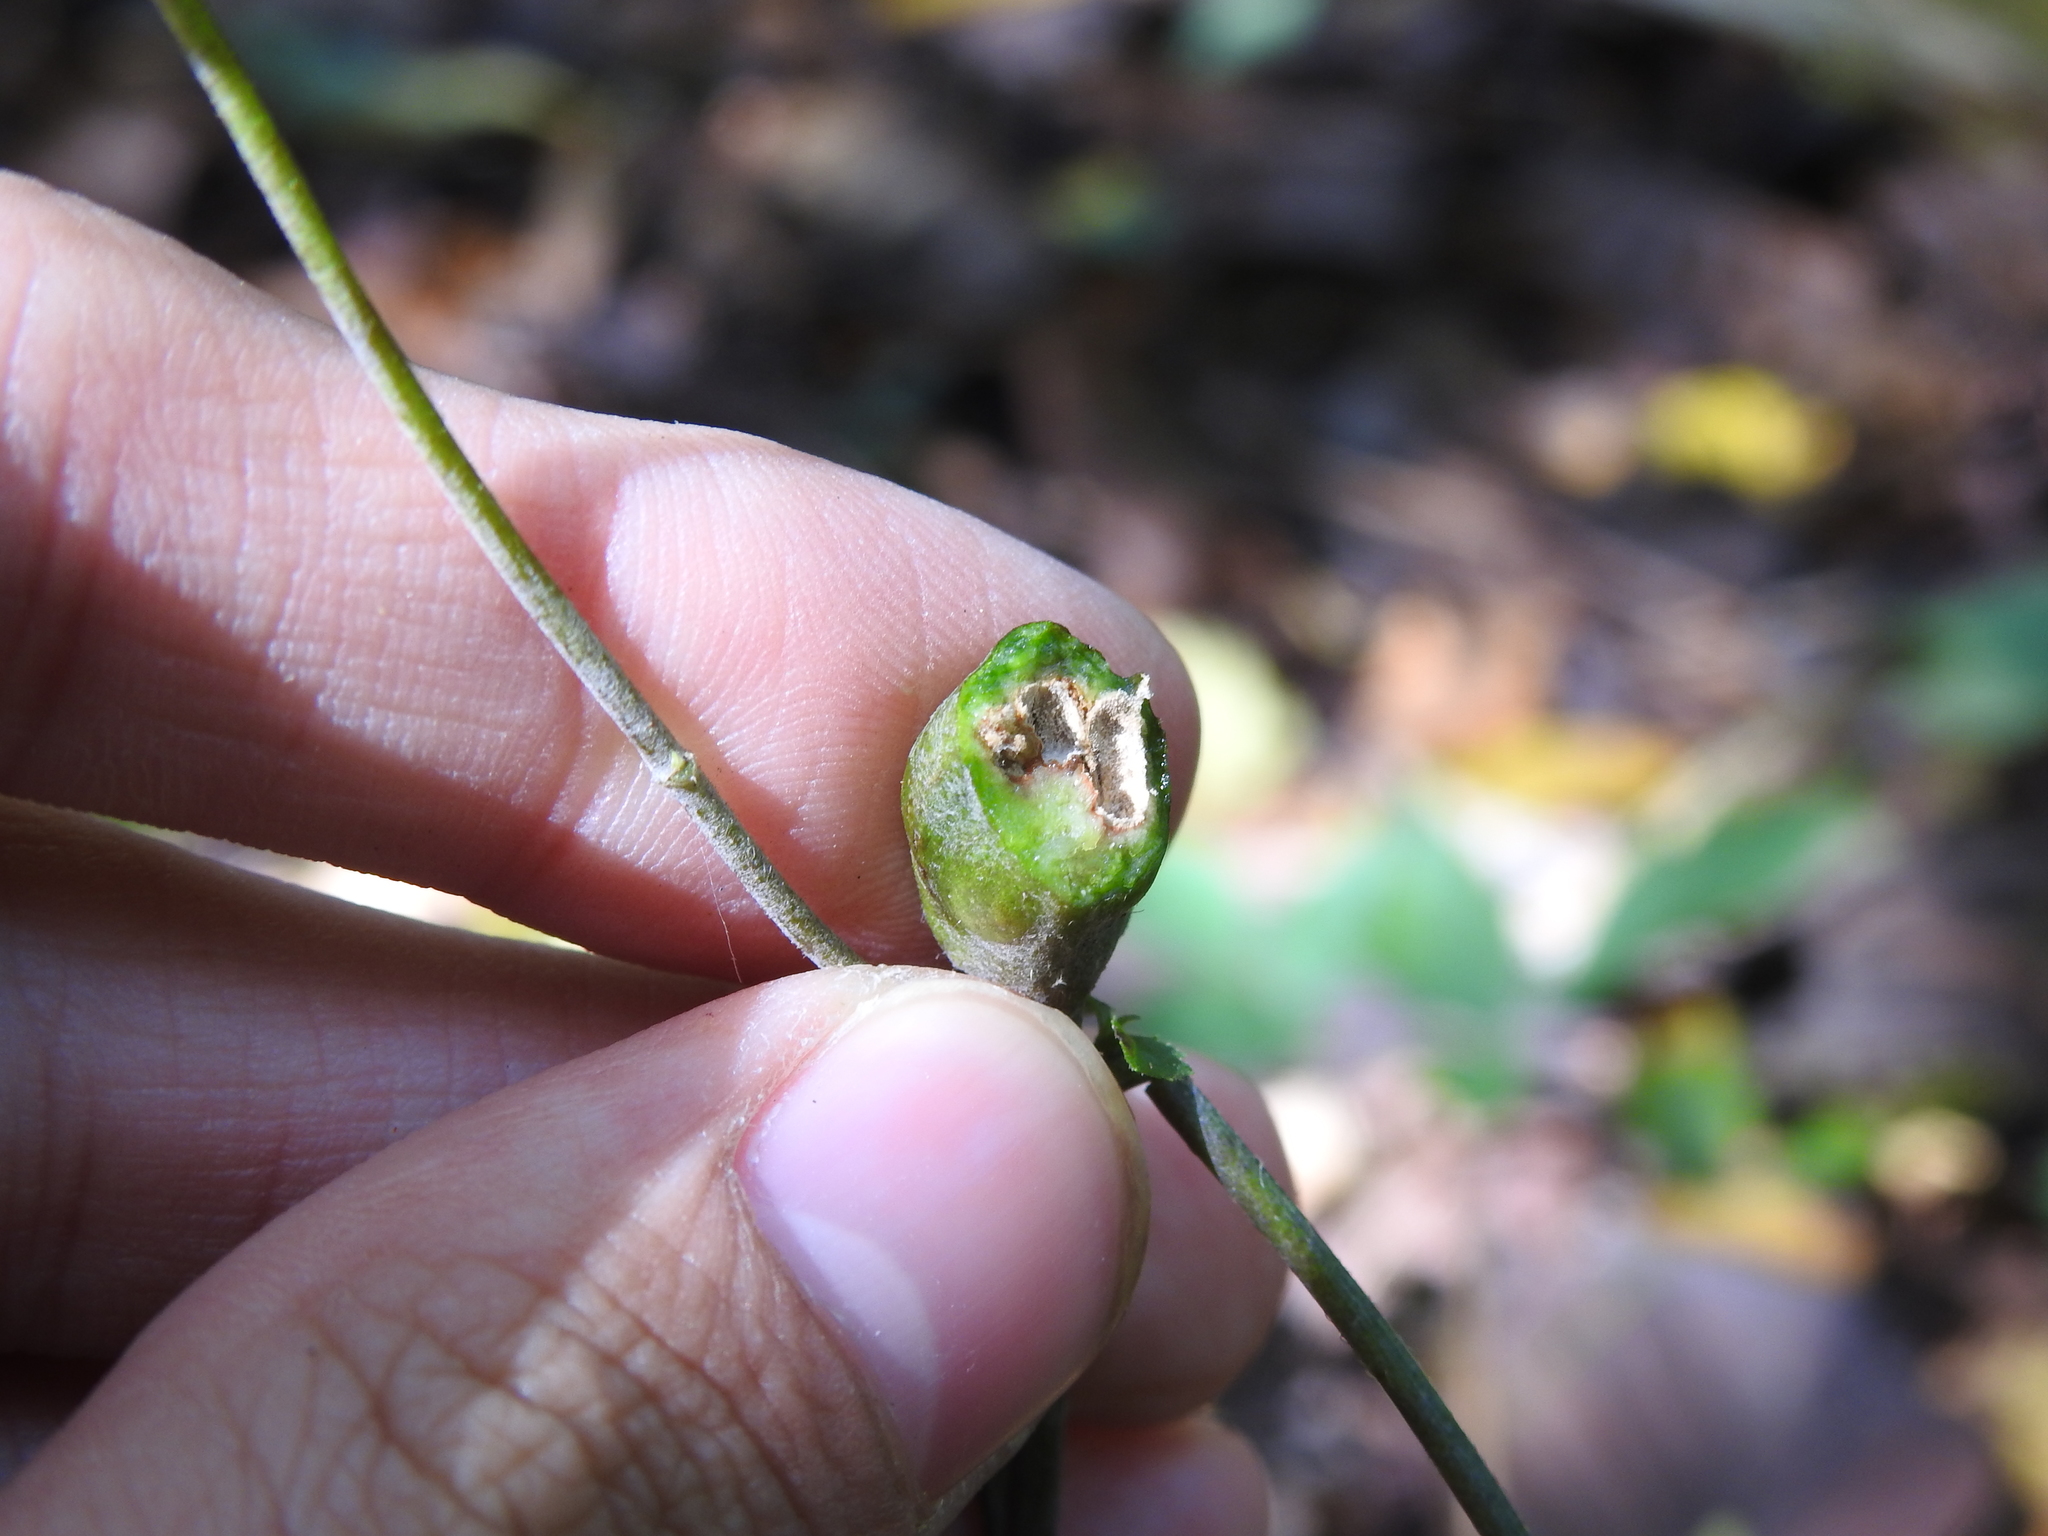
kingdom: Animalia
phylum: Arthropoda
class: Insecta
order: Diptera
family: Cecidomyiidae
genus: Asphondylia
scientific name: Asphondylia eupatorii
